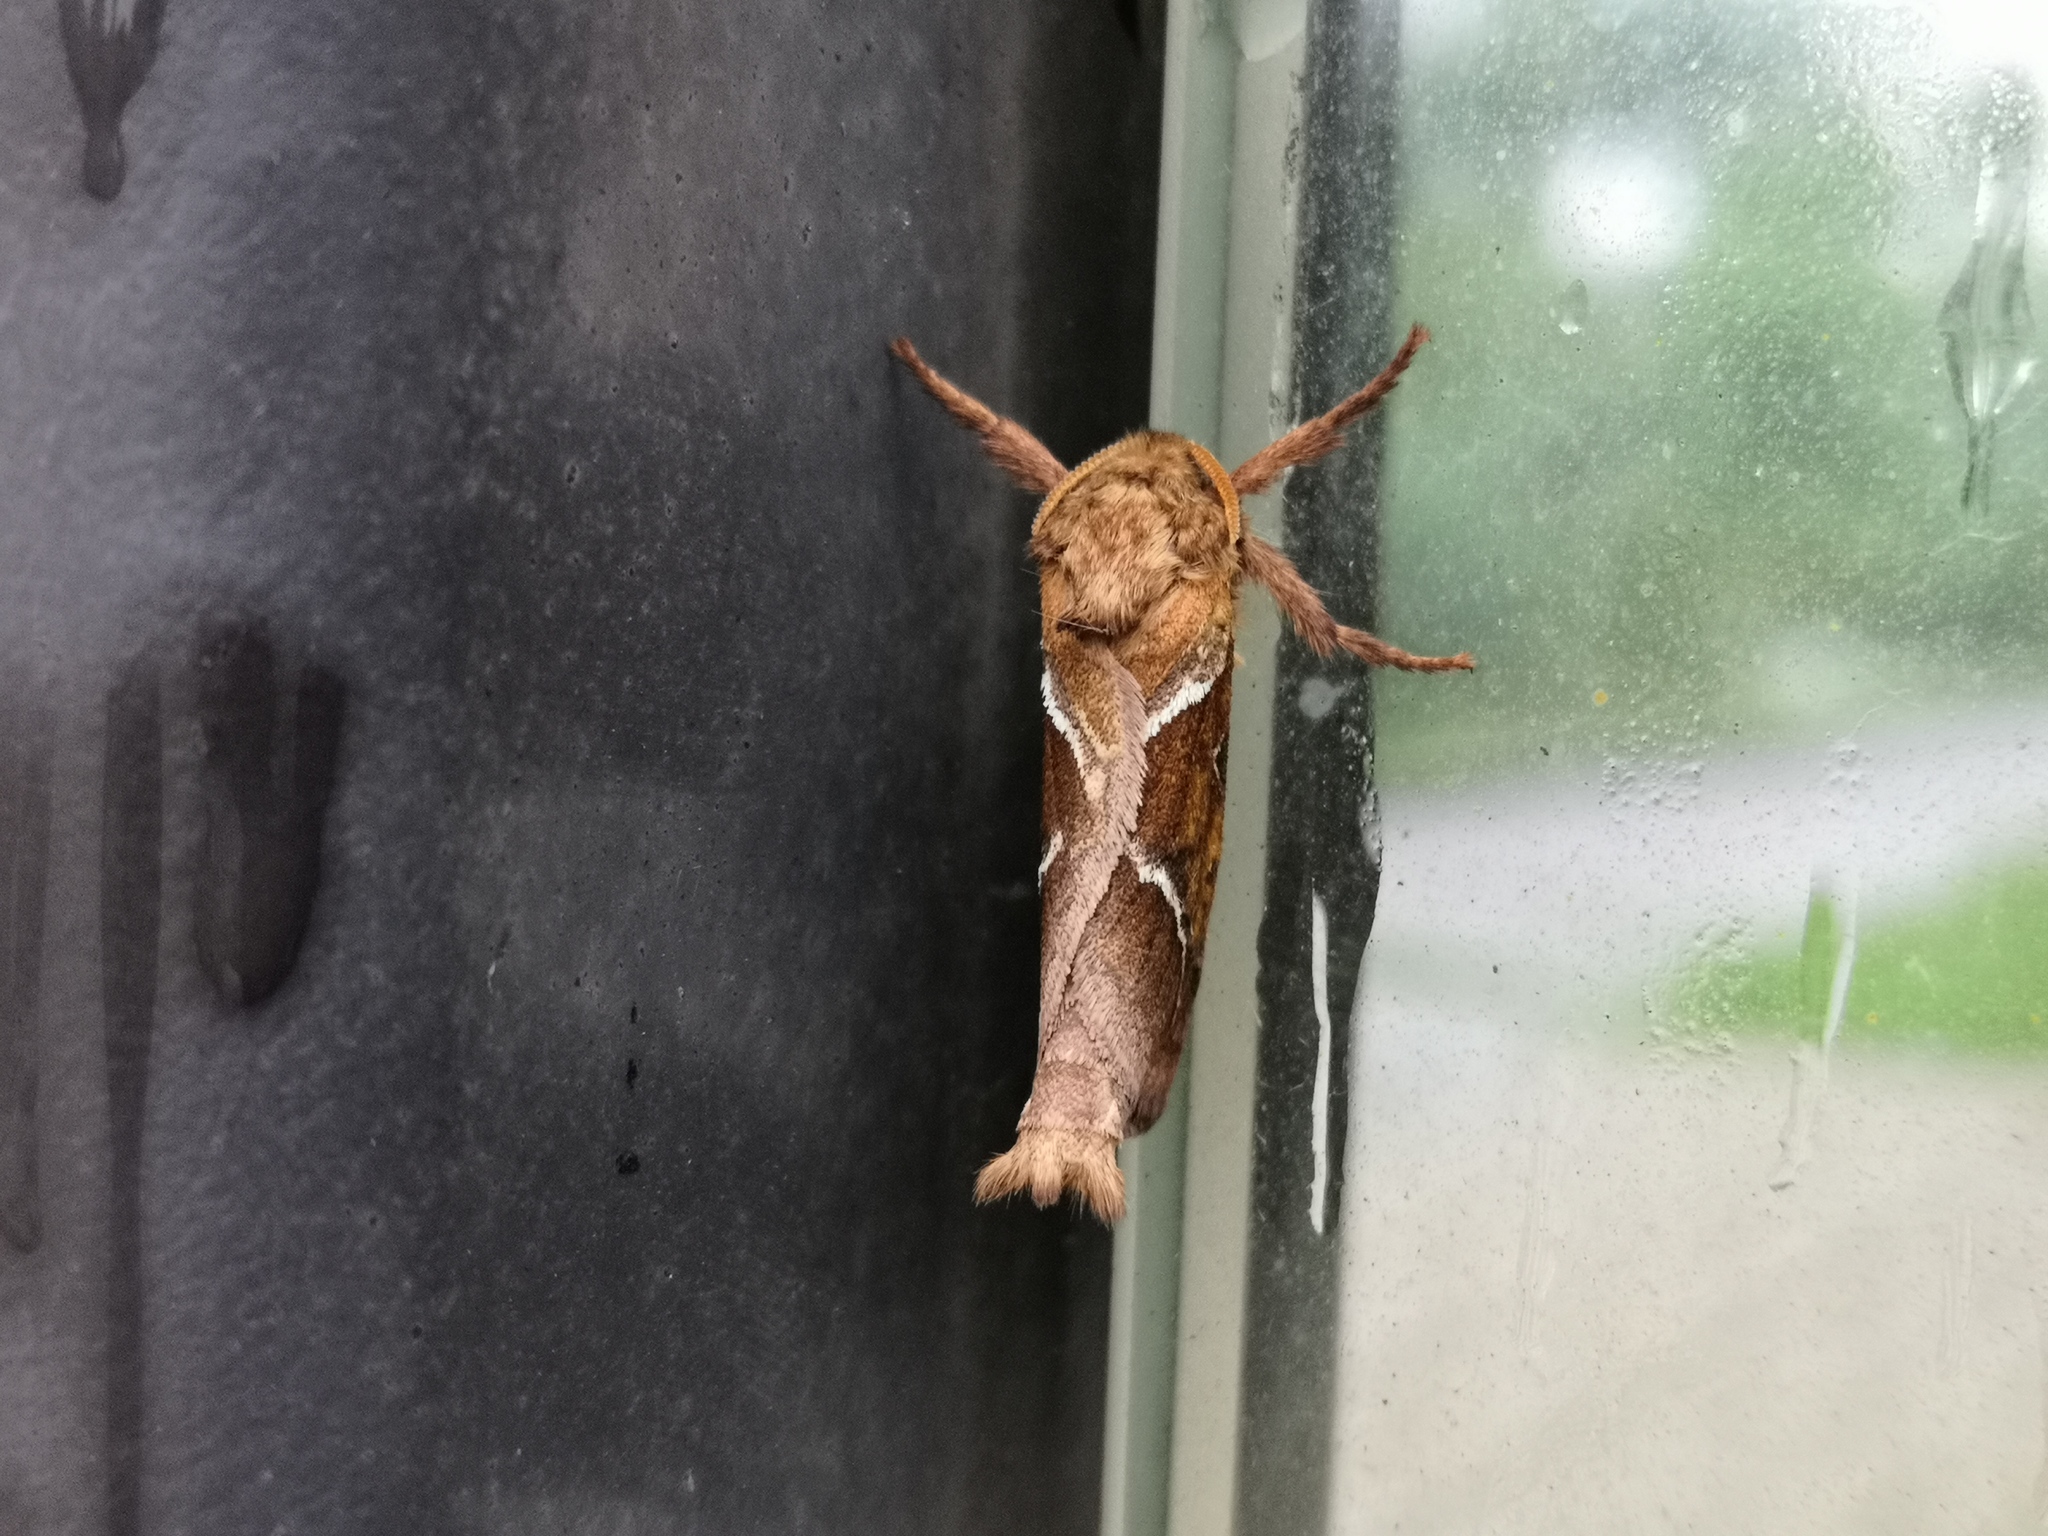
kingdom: Animalia
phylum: Arthropoda
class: Insecta
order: Lepidoptera
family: Hepialidae
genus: Triodia
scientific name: Triodia sylvina
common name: Orange swift
